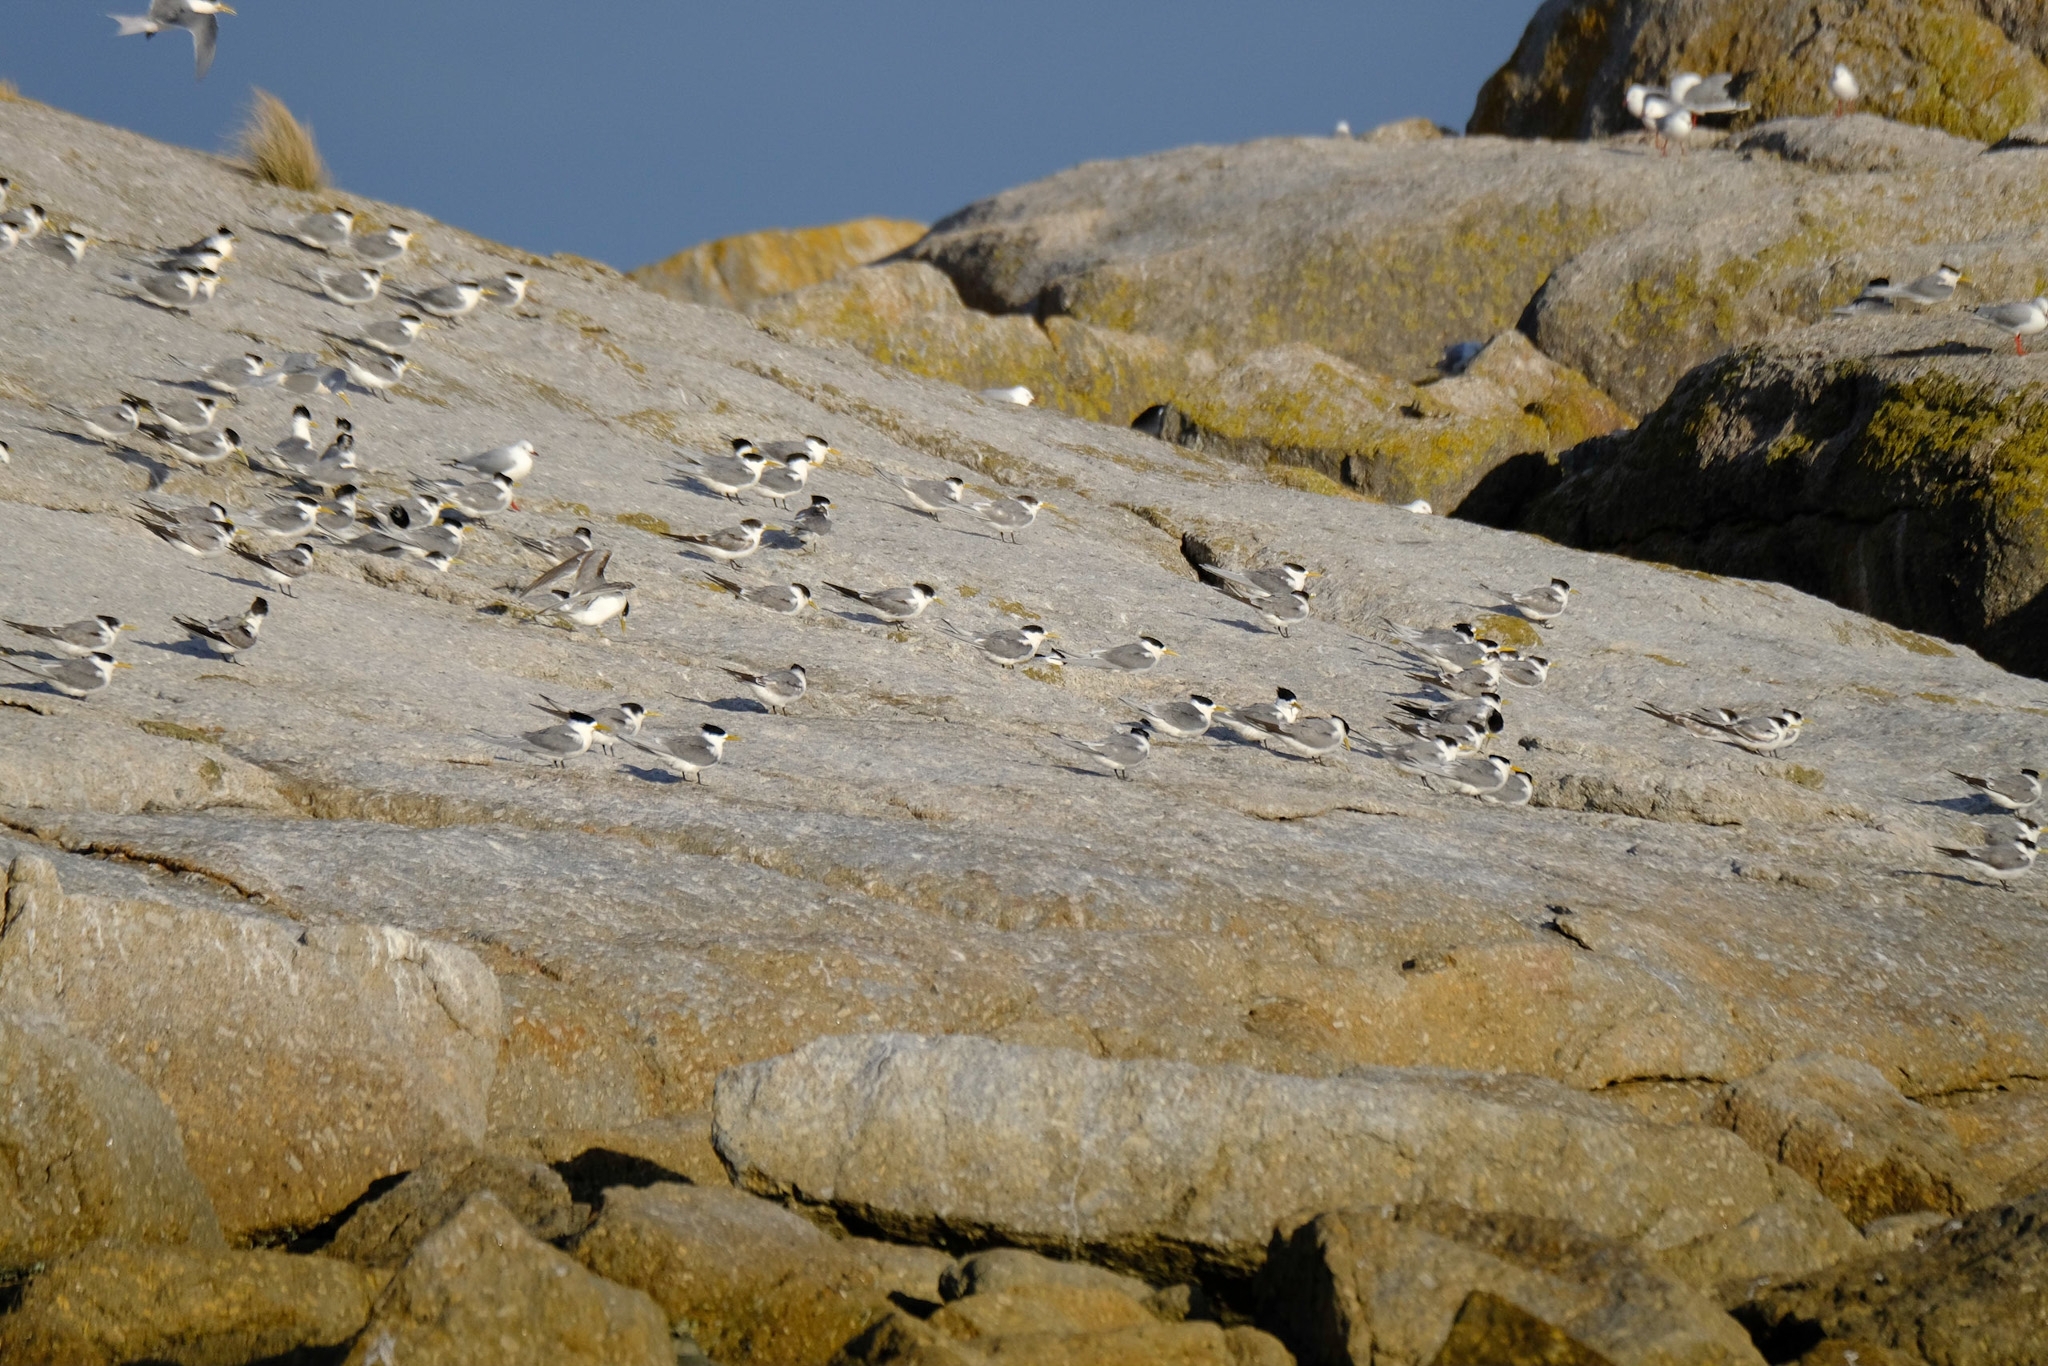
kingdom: Animalia
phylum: Chordata
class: Aves
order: Charadriiformes
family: Laridae
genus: Thalasseus
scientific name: Thalasseus bergii
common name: Greater crested tern
